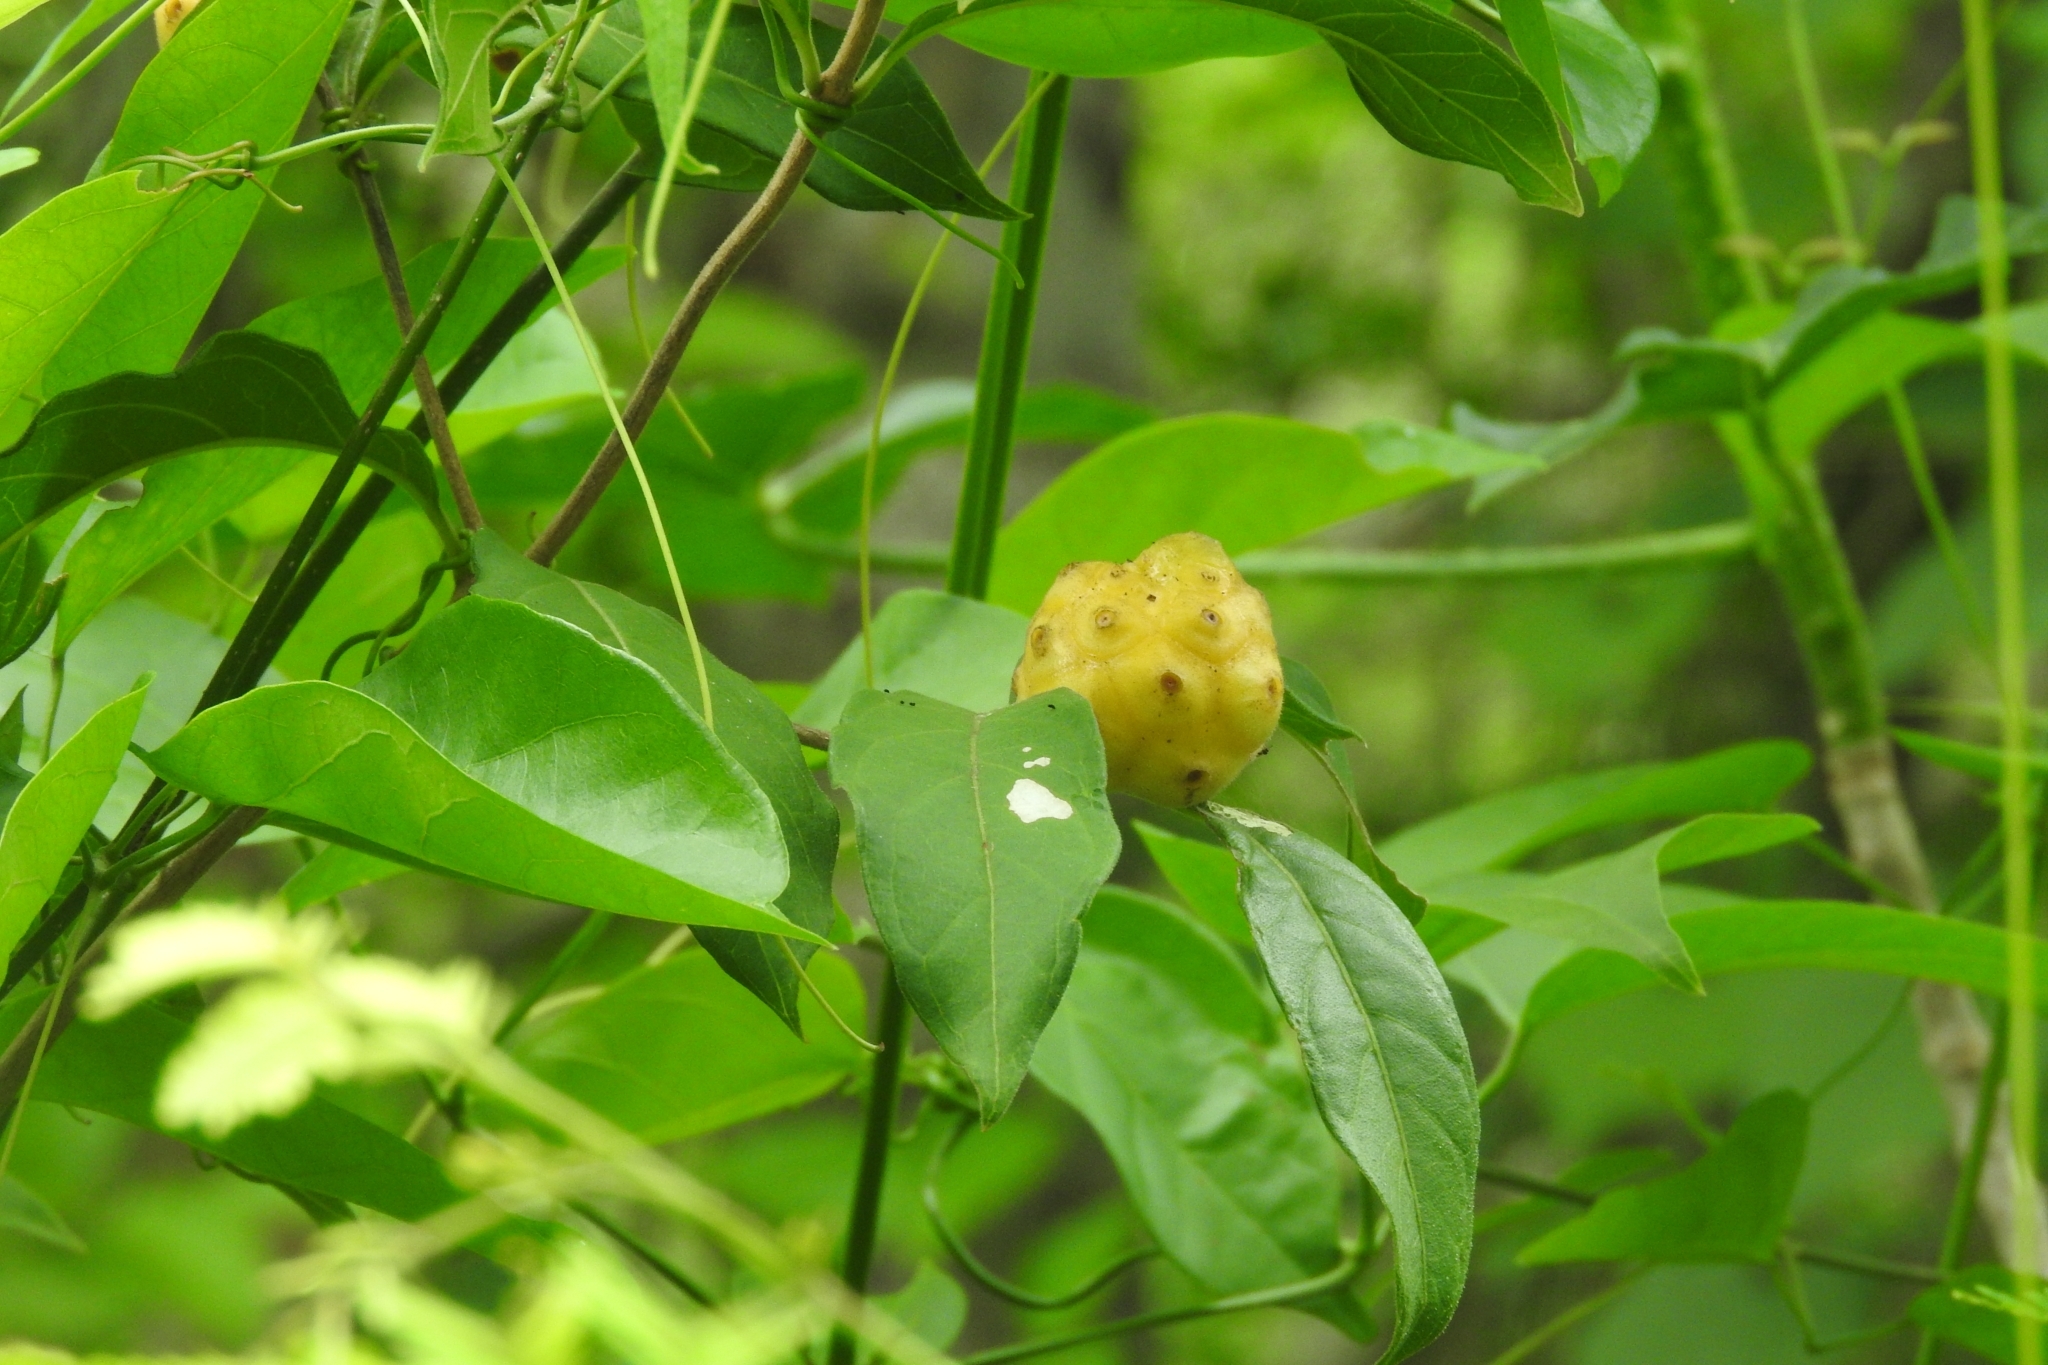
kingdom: Plantae
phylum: Tracheophyta
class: Magnoliopsida
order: Gentianales
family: Rubiaceae
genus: Morinda
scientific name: Morinda royoc
